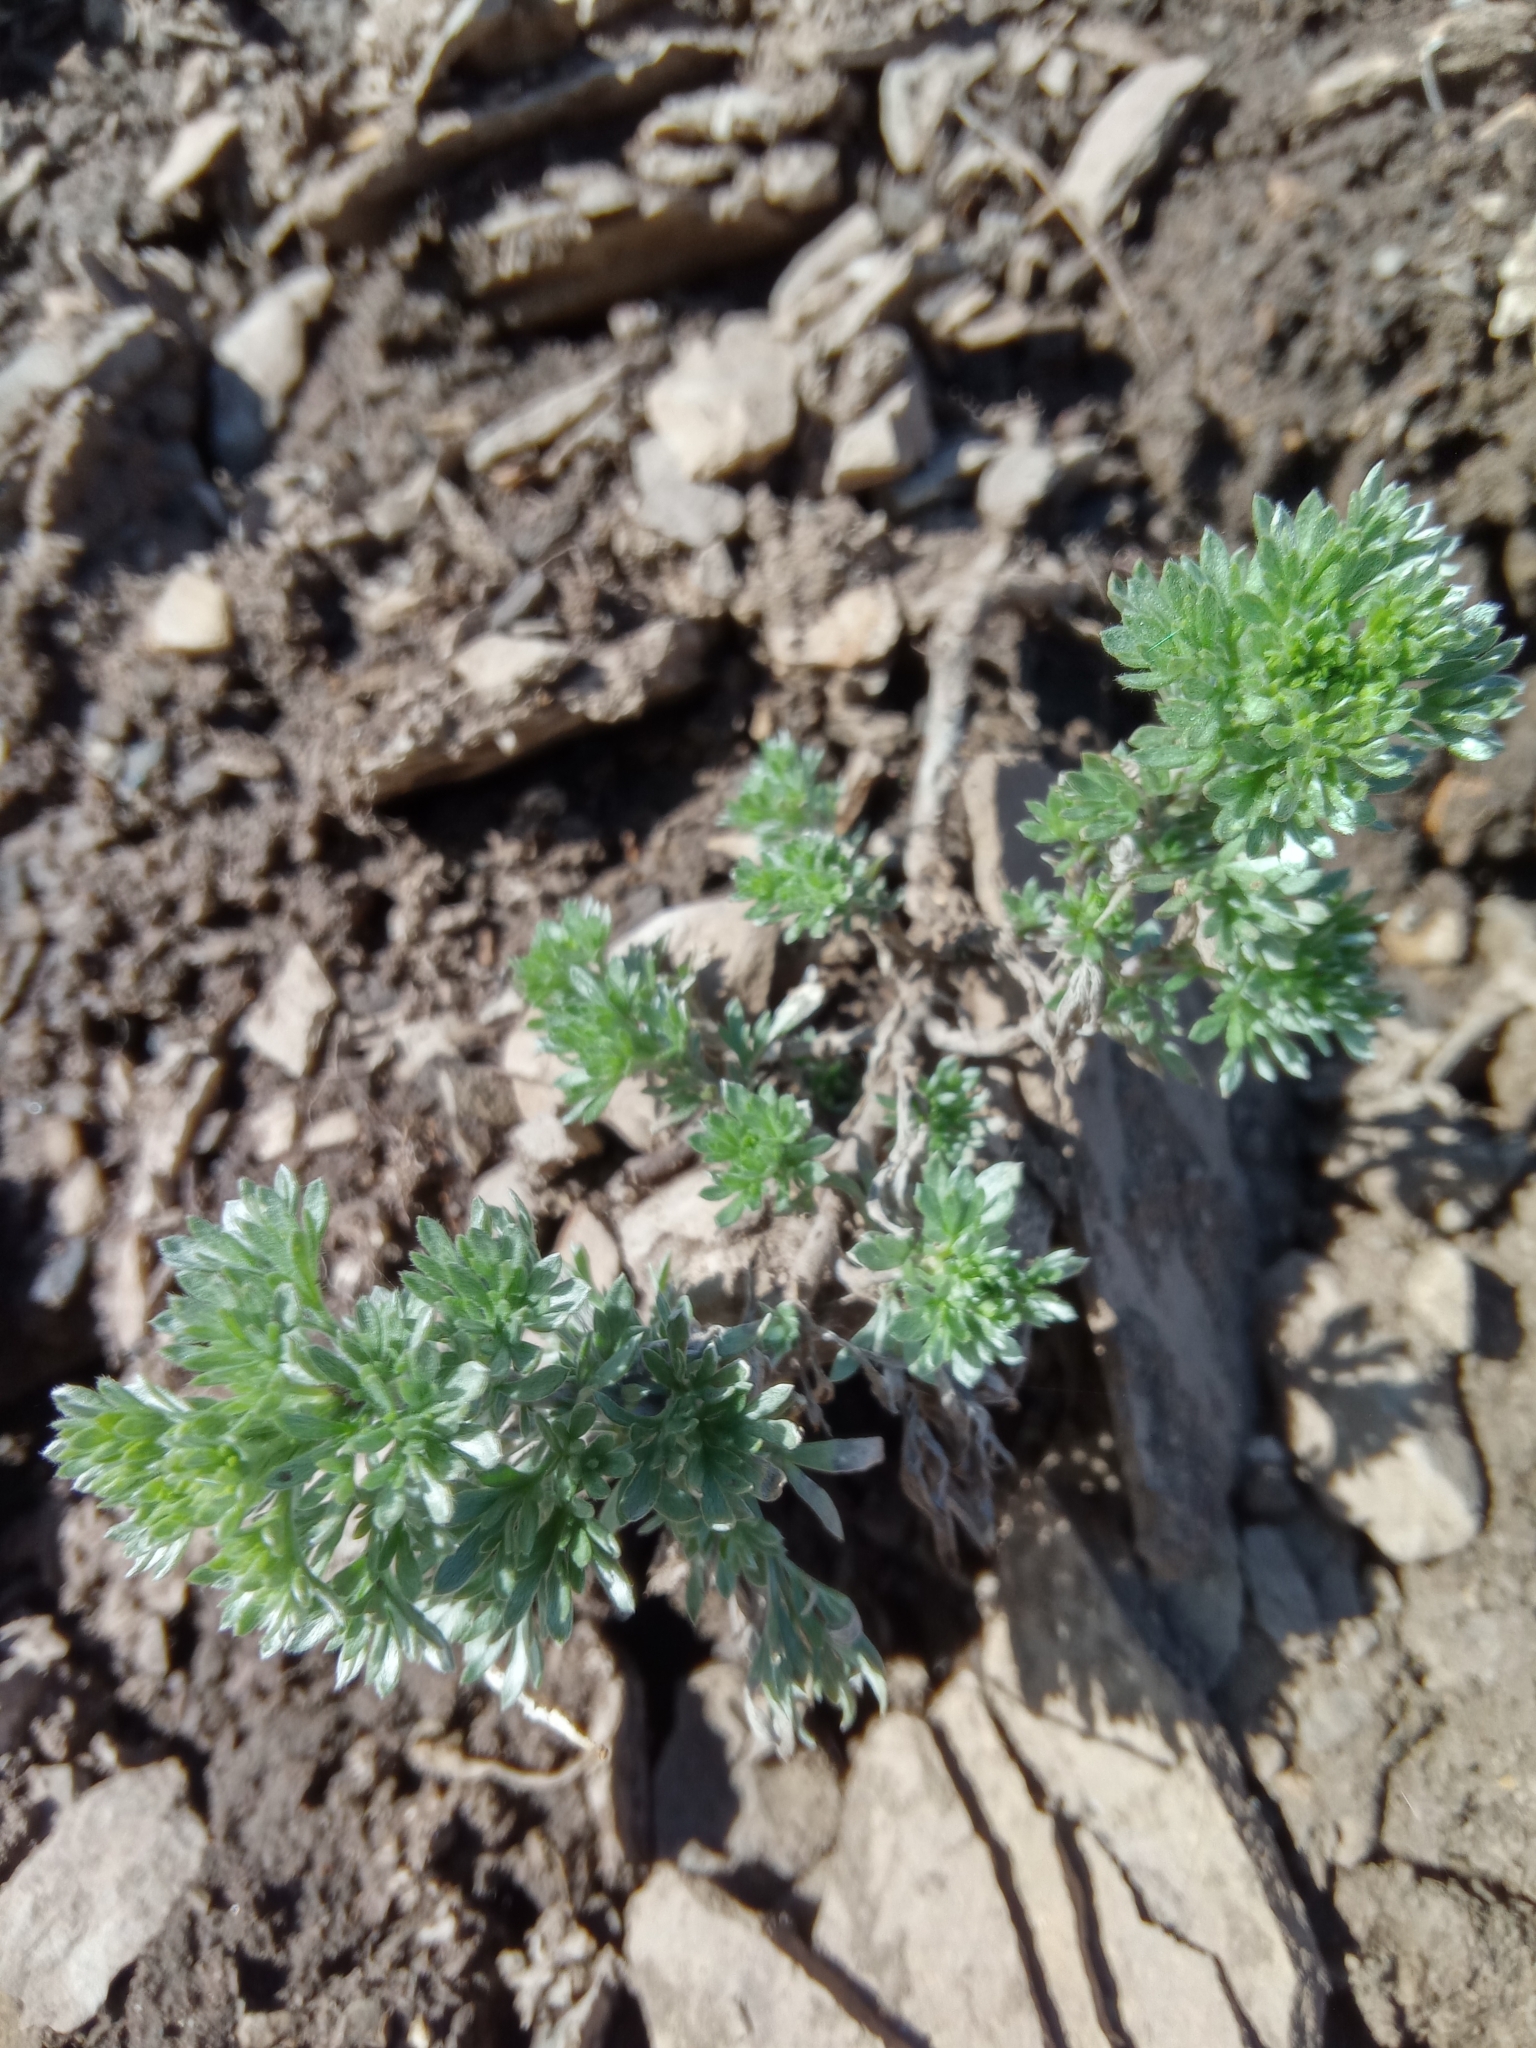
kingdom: Plantae
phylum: Tracheophyta
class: Magnoliopsida
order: Asterales
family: Asteraceae
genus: Artemisia
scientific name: Artemisia absinthium
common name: Wormwood
